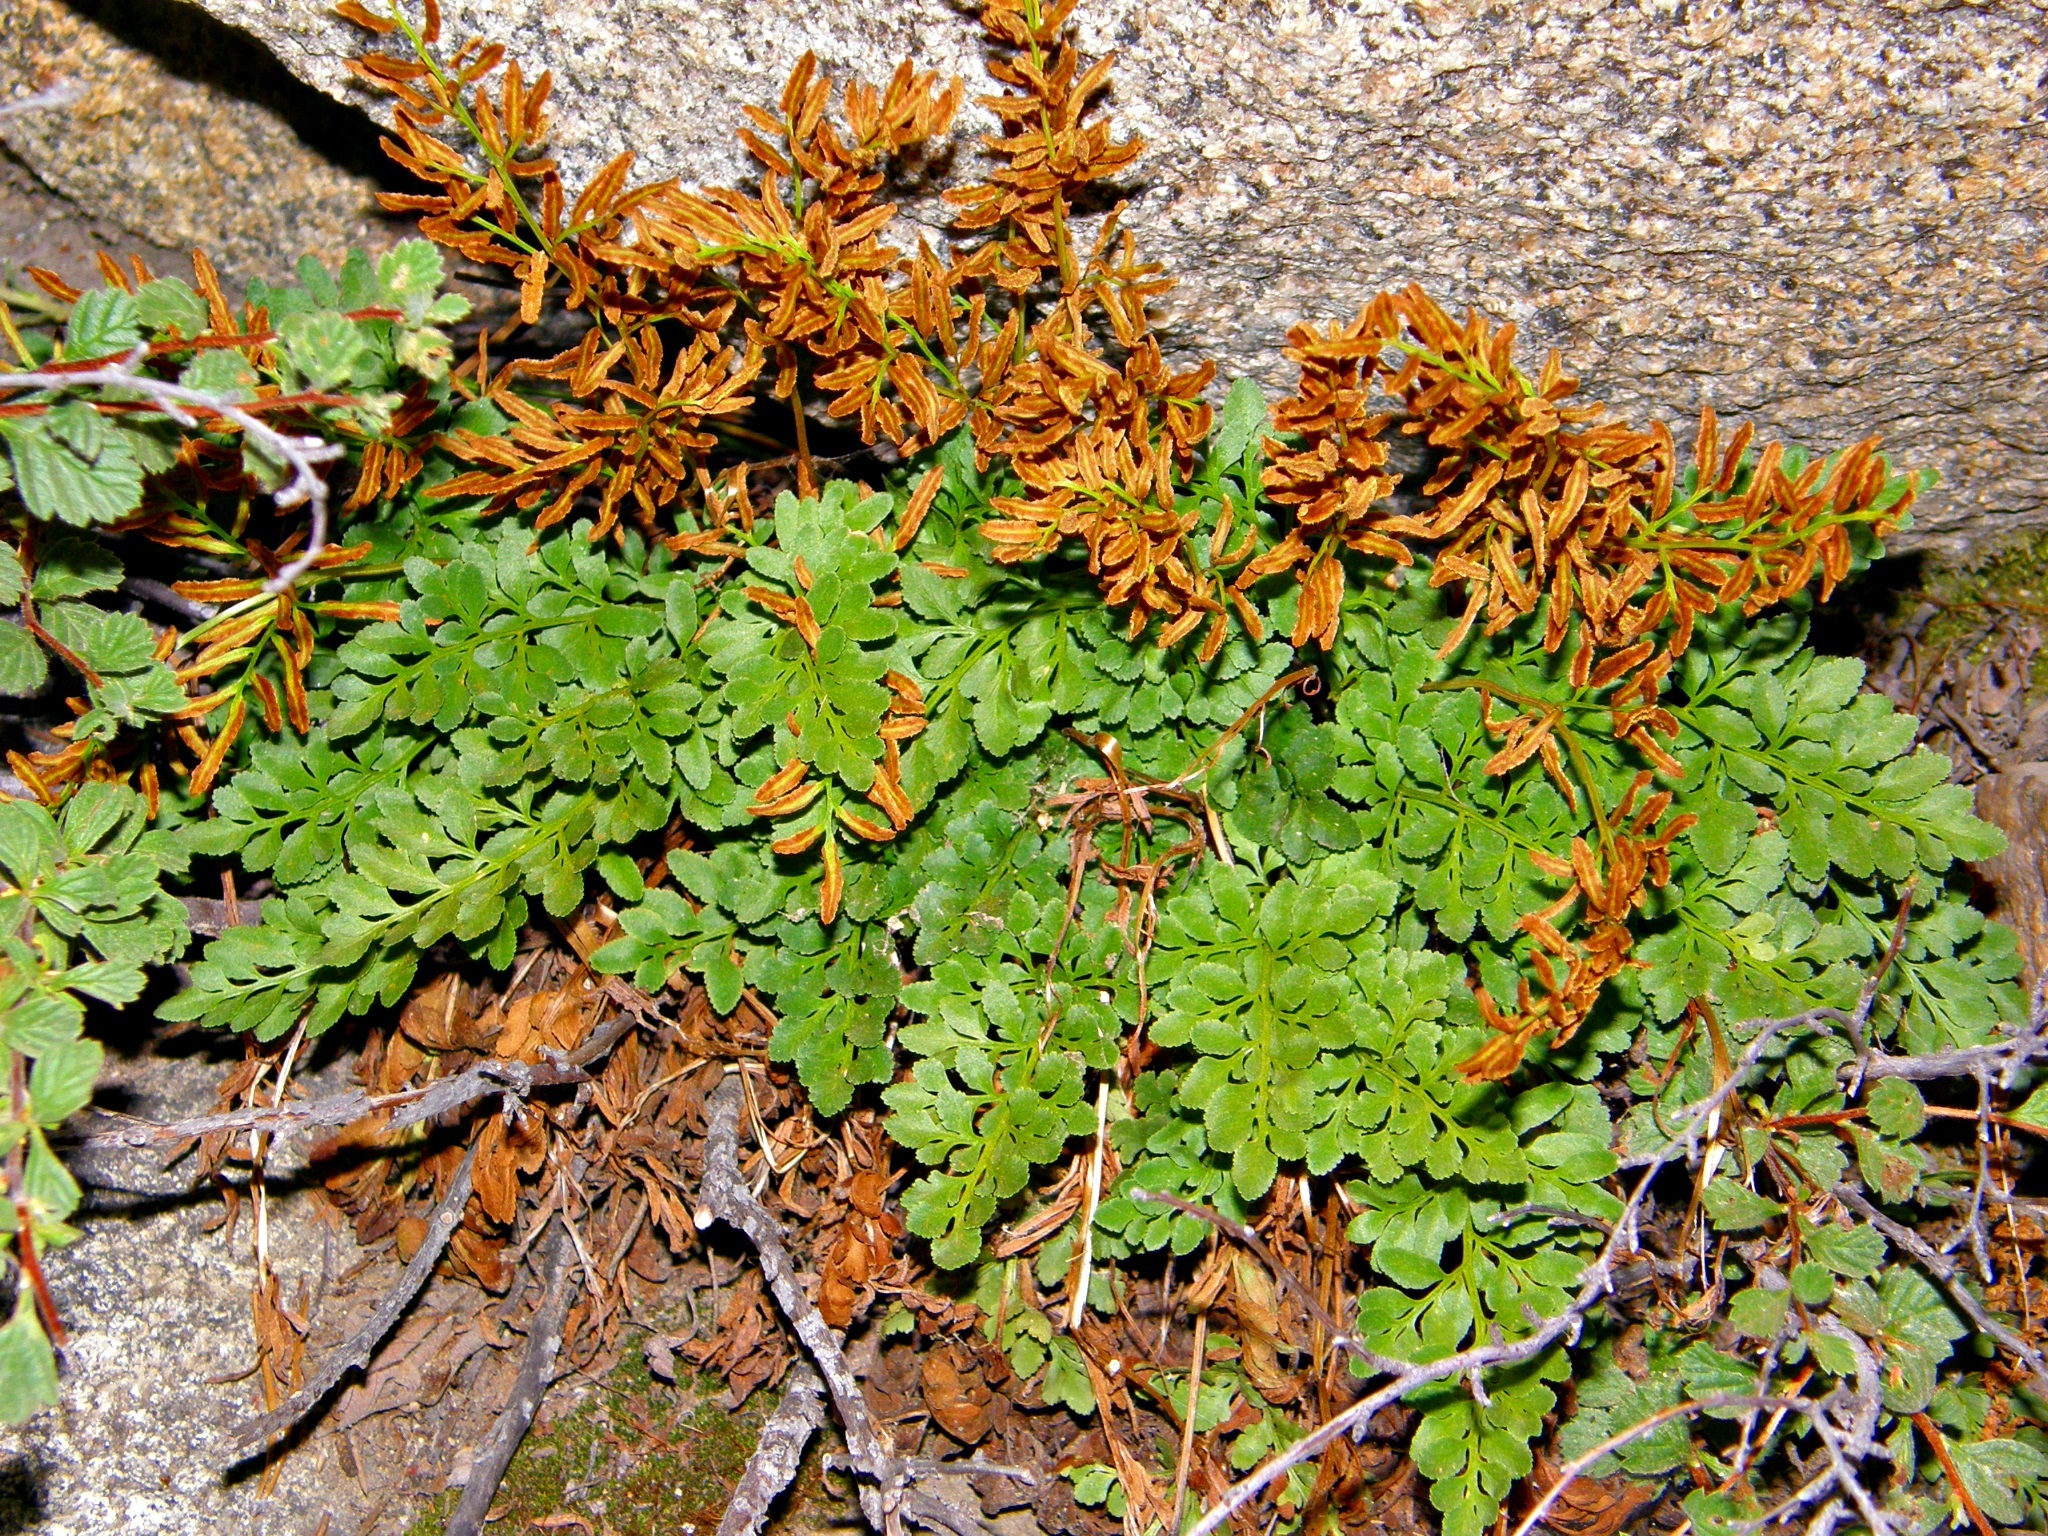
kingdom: Plantae
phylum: Tracheophyta
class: Polypodiopsida
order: Polypodiales
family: Pteridaceae
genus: Cryptogramma
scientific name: Cryptogramma acrostichoides
